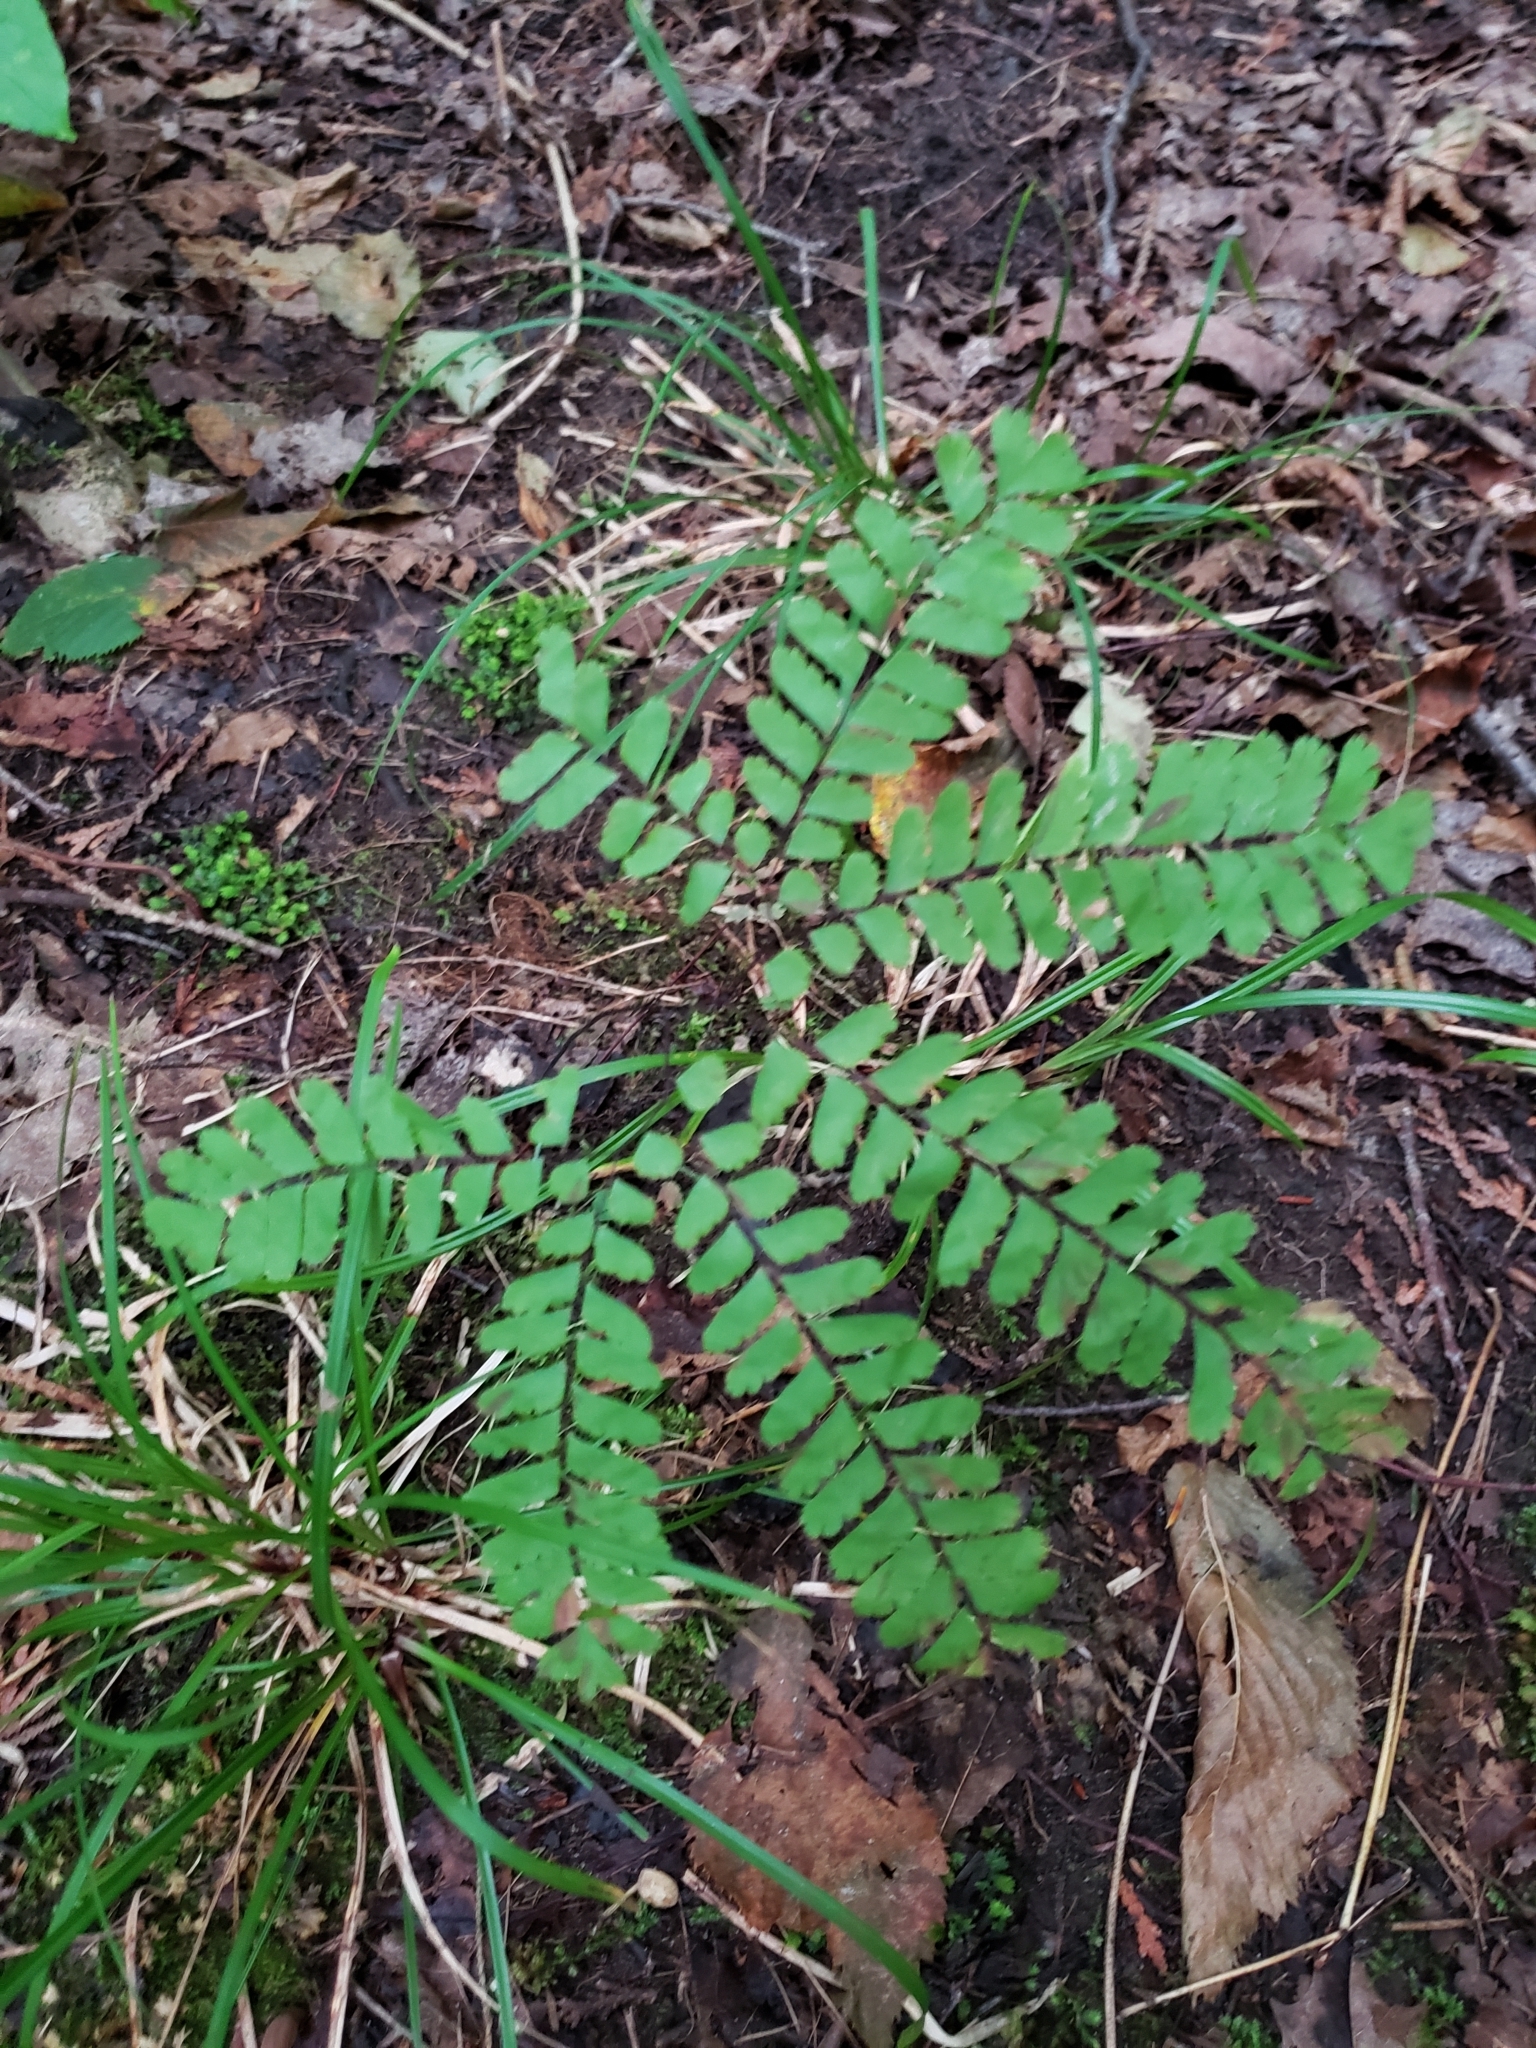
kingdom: Plantae
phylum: Tracheophyta
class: Polypodiopsida
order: Polypodiales
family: Pteridaceae
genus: Adiantum
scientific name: Adiantum pedatum
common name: Five-finger fern
